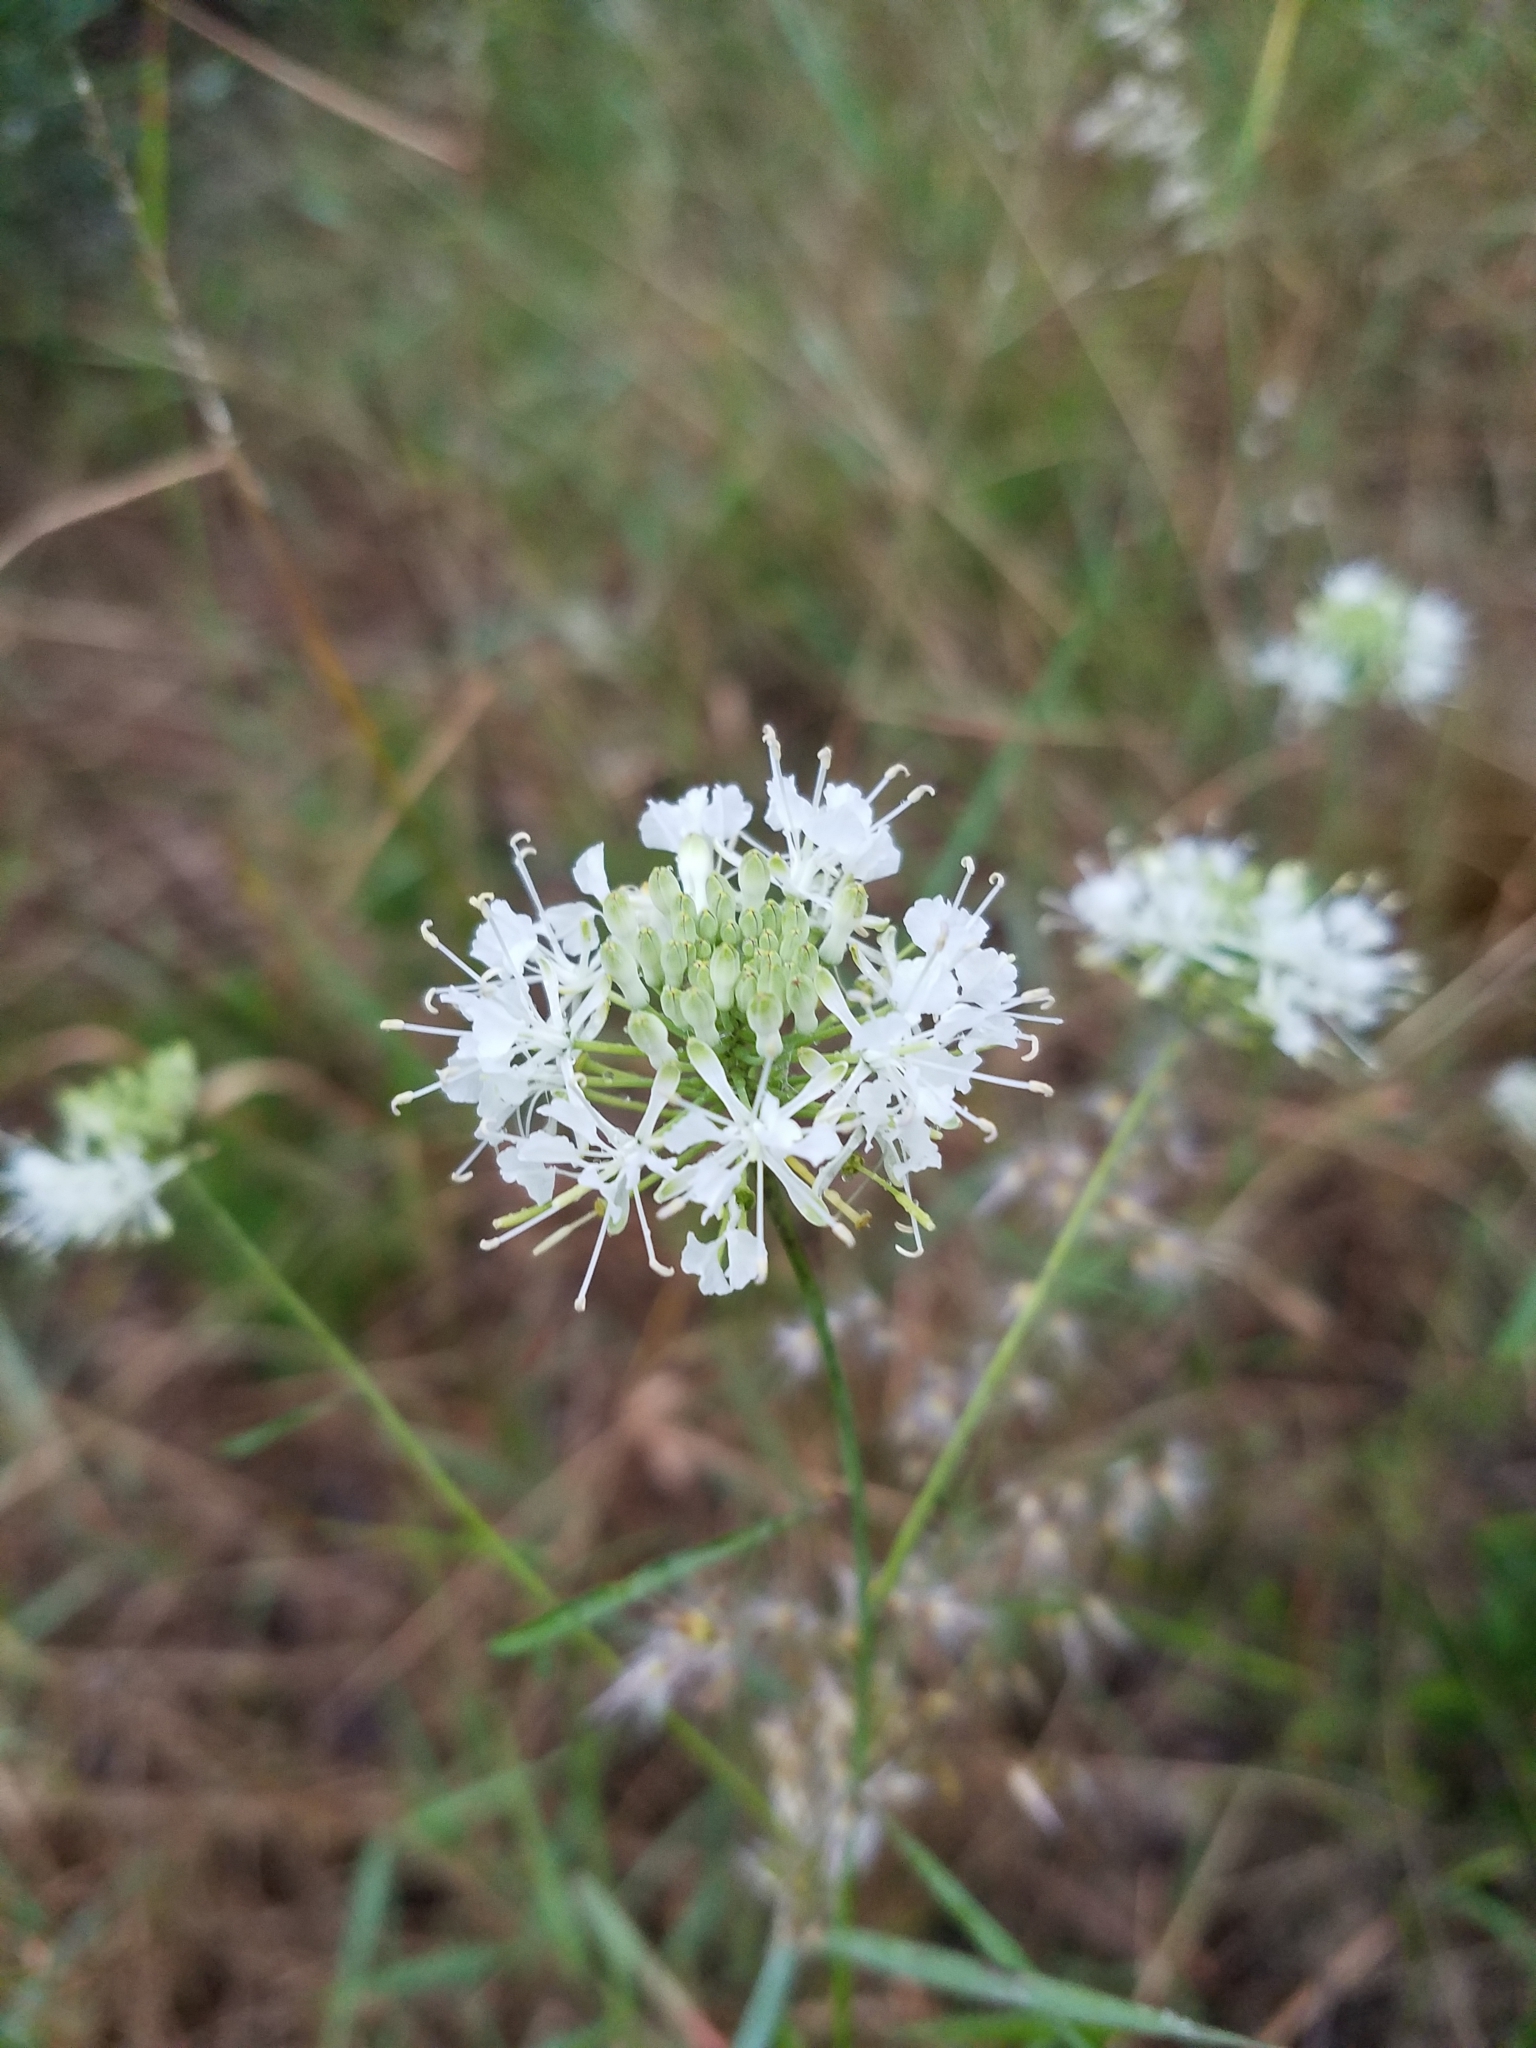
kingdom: Plantae
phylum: Tracheophyta
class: Magnoliopsida
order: Brassicales
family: Brassicaceae
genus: Warea
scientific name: Warea carteri
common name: Carter's mustard
